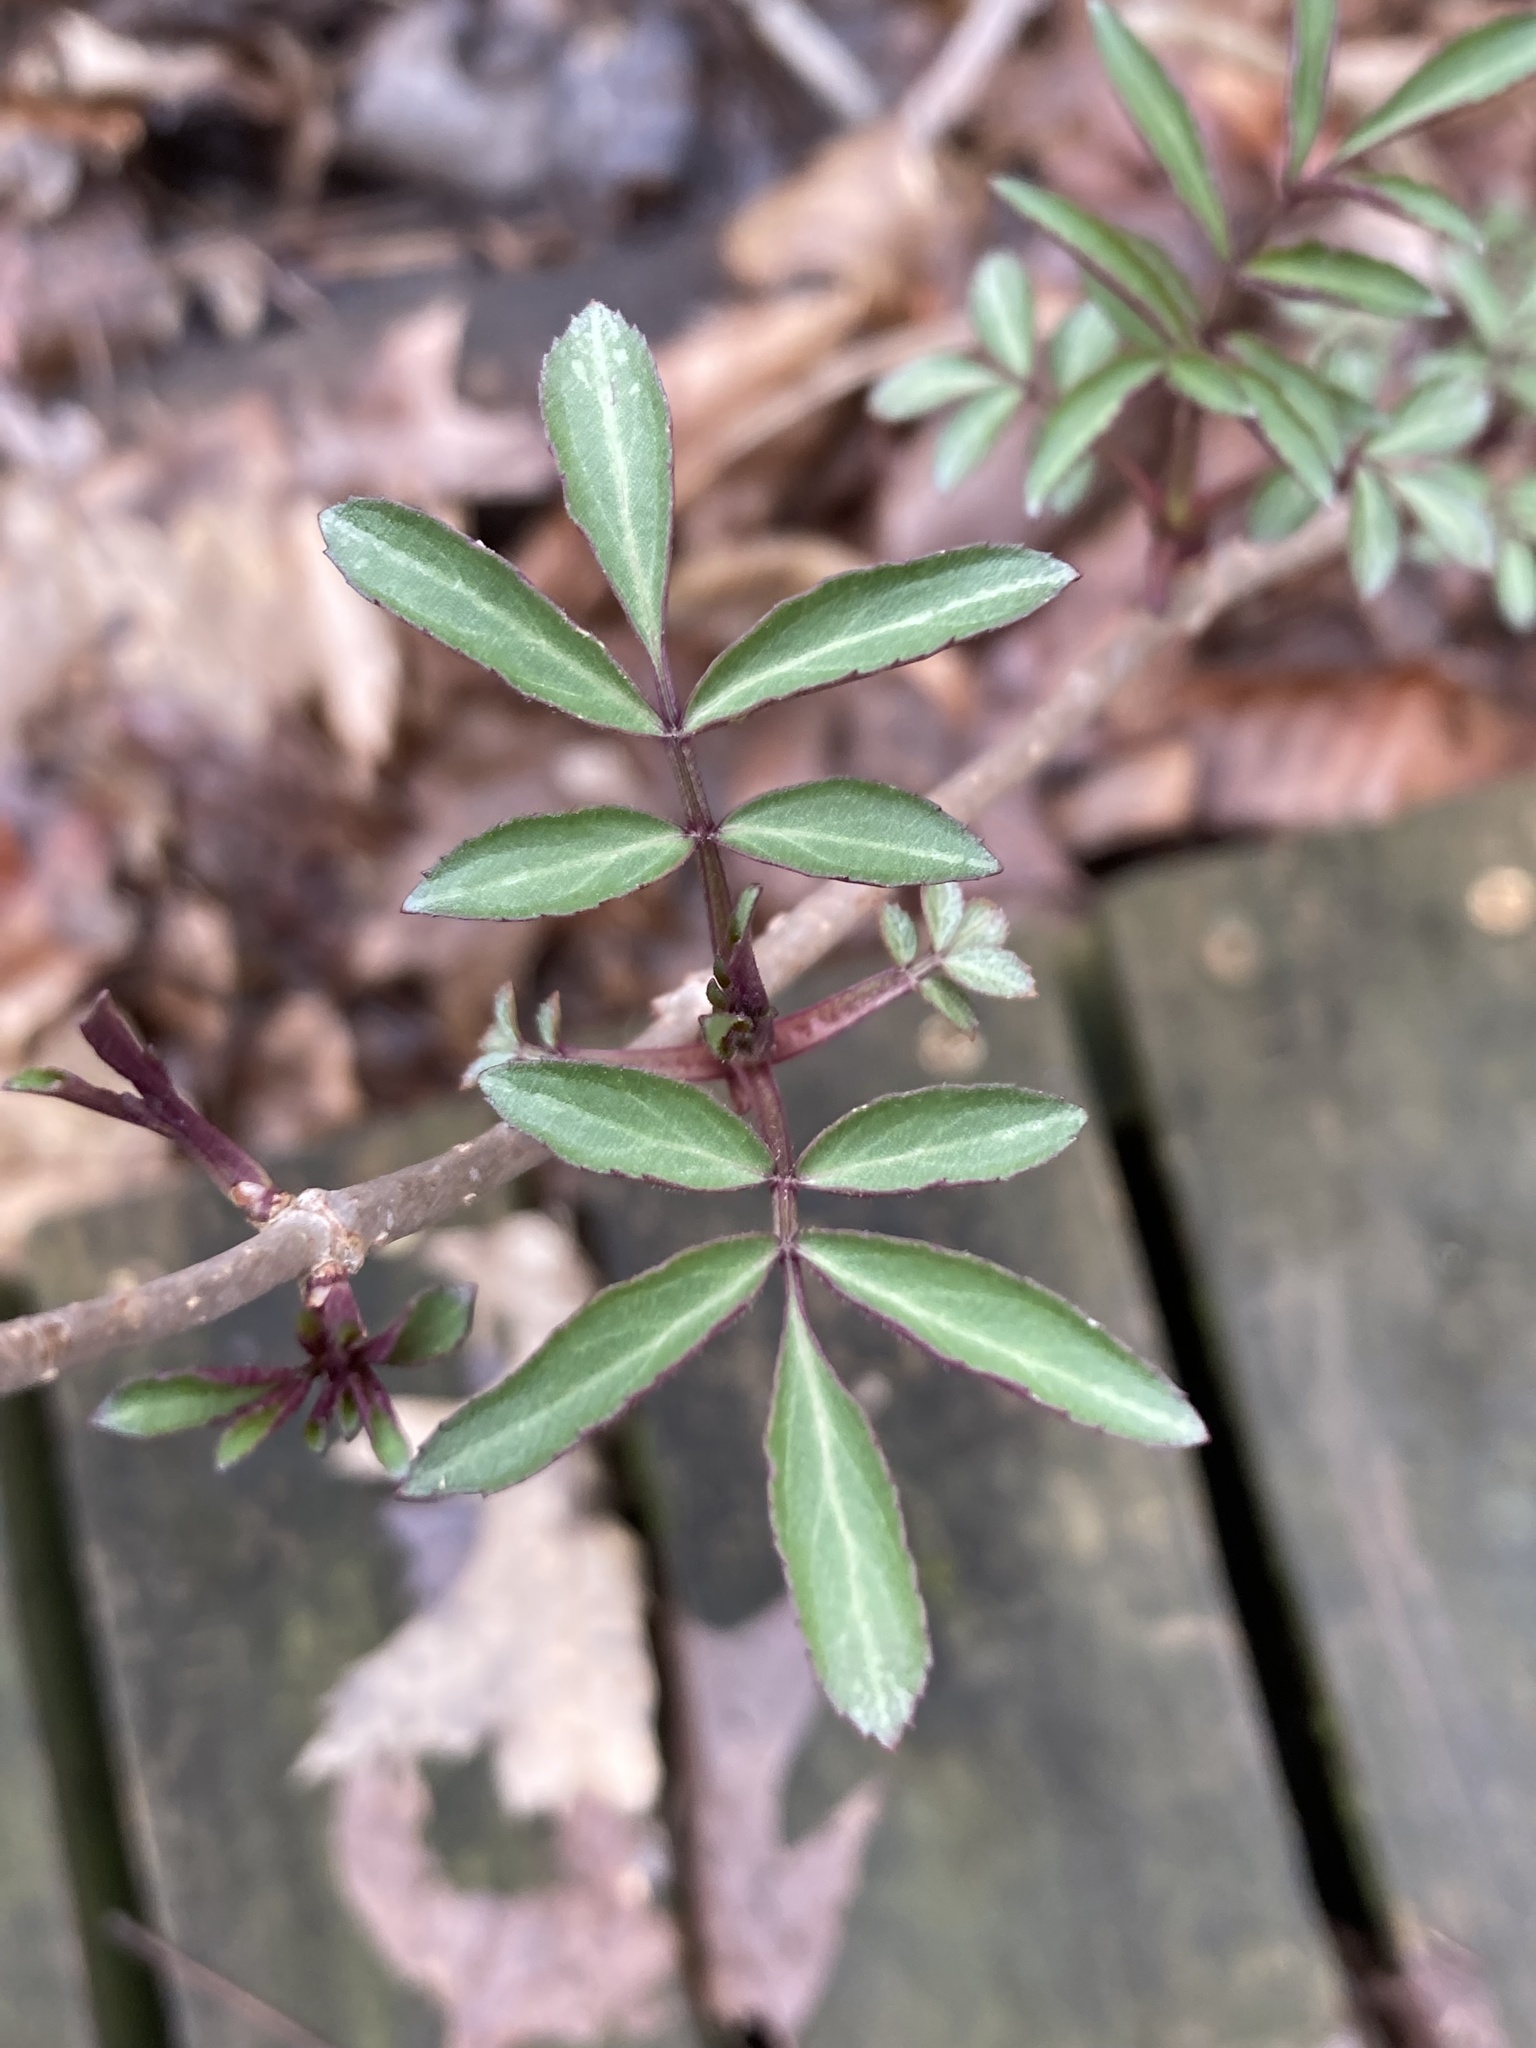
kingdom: Plantae
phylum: Tracheophyta
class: Magnoliopsida
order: Dipsacales
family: Viburnaceae
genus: Sambucus
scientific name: Sambucus canadensis
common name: American elder
